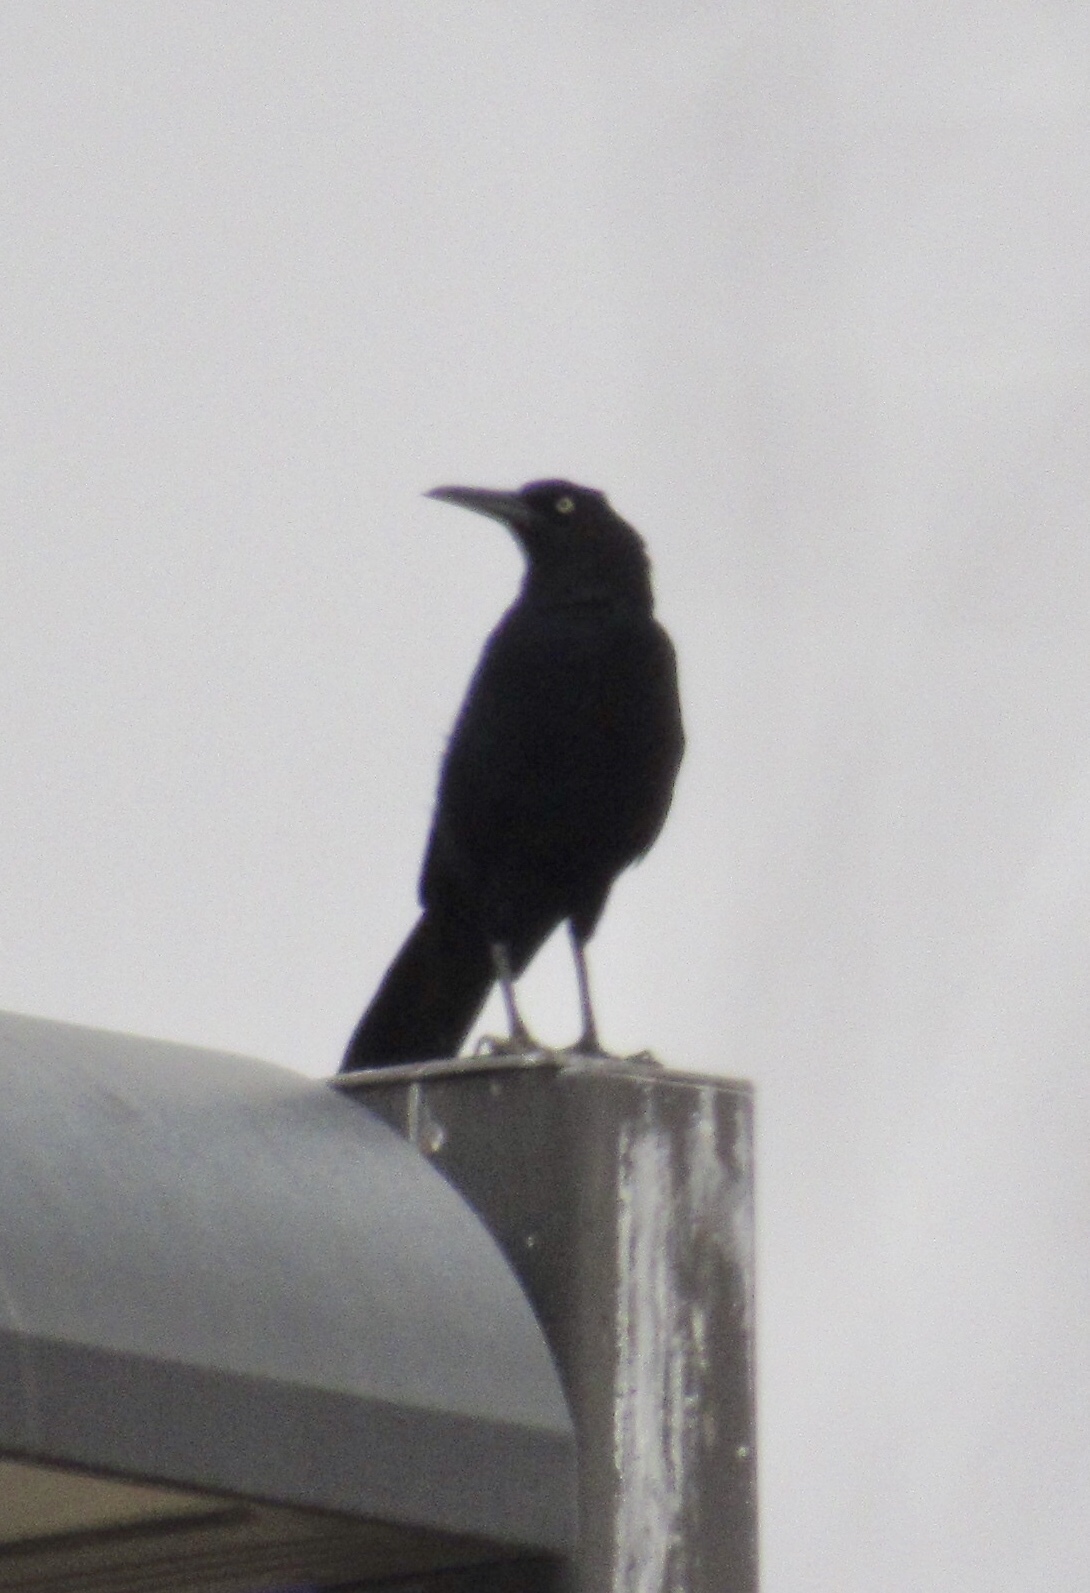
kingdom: Animalia
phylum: Chordata
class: Aves
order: Passeriformes
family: Icteridae
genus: Quiscalus
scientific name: Quiscalus mexicanus
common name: Great-tailed grackle
